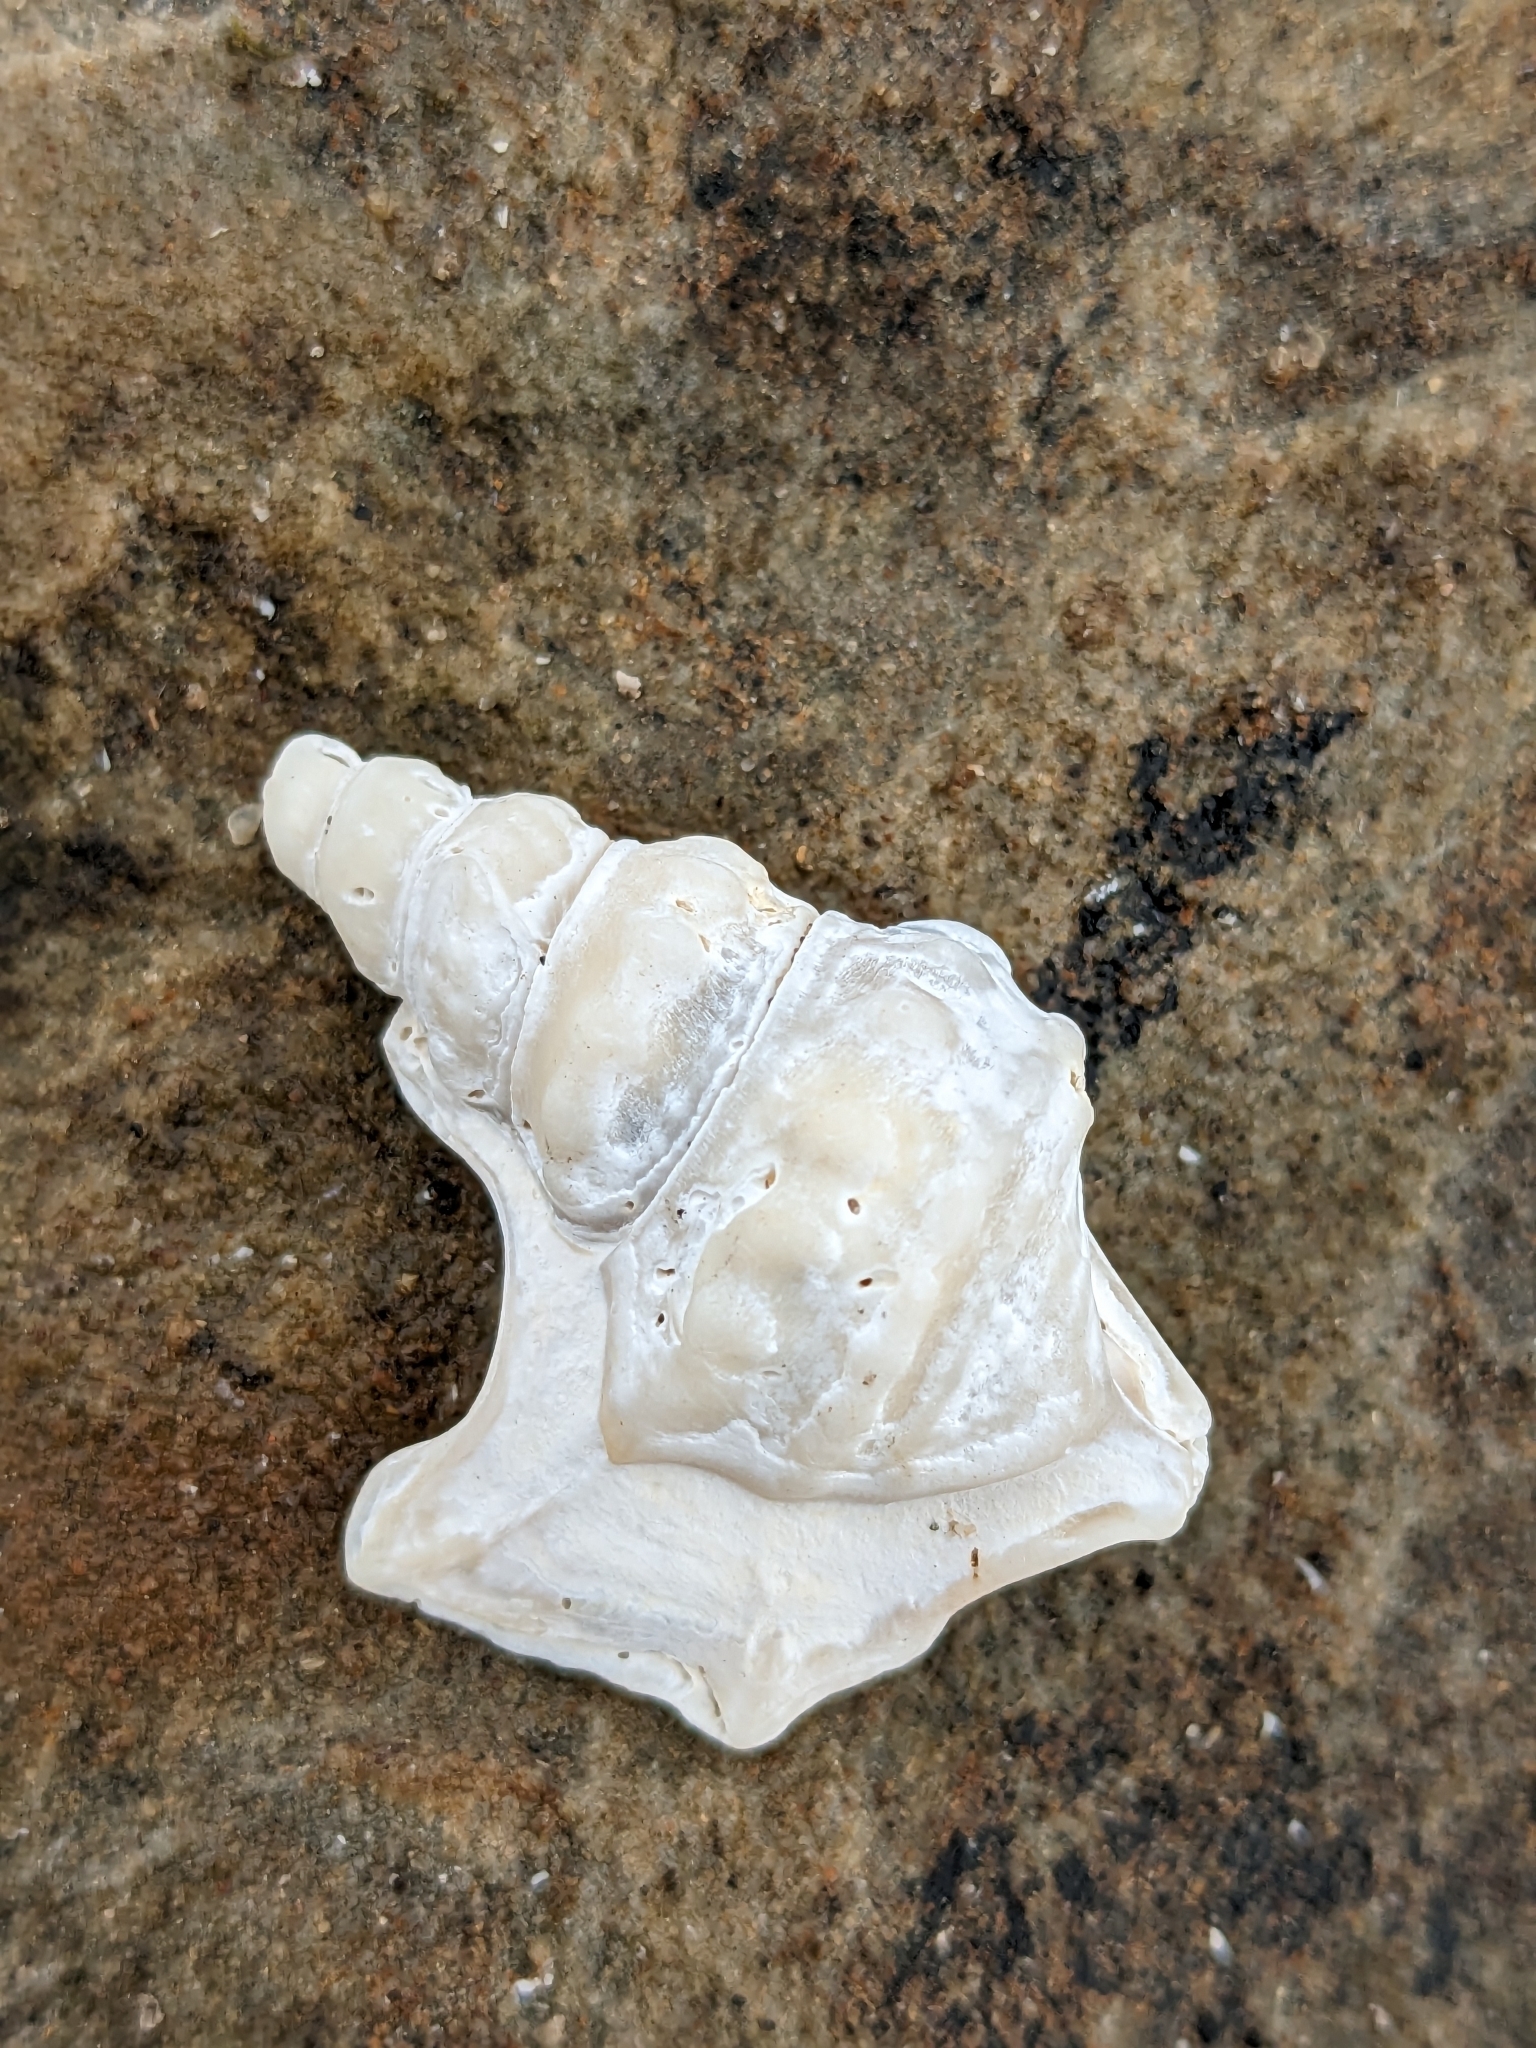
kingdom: Animalia
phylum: Mollusca
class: Gastropoda
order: Littorinimorpha
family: Aporrhaidae
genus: Aporrhais
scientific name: Aporrhais pespelecani
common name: Common pelican’s foot
